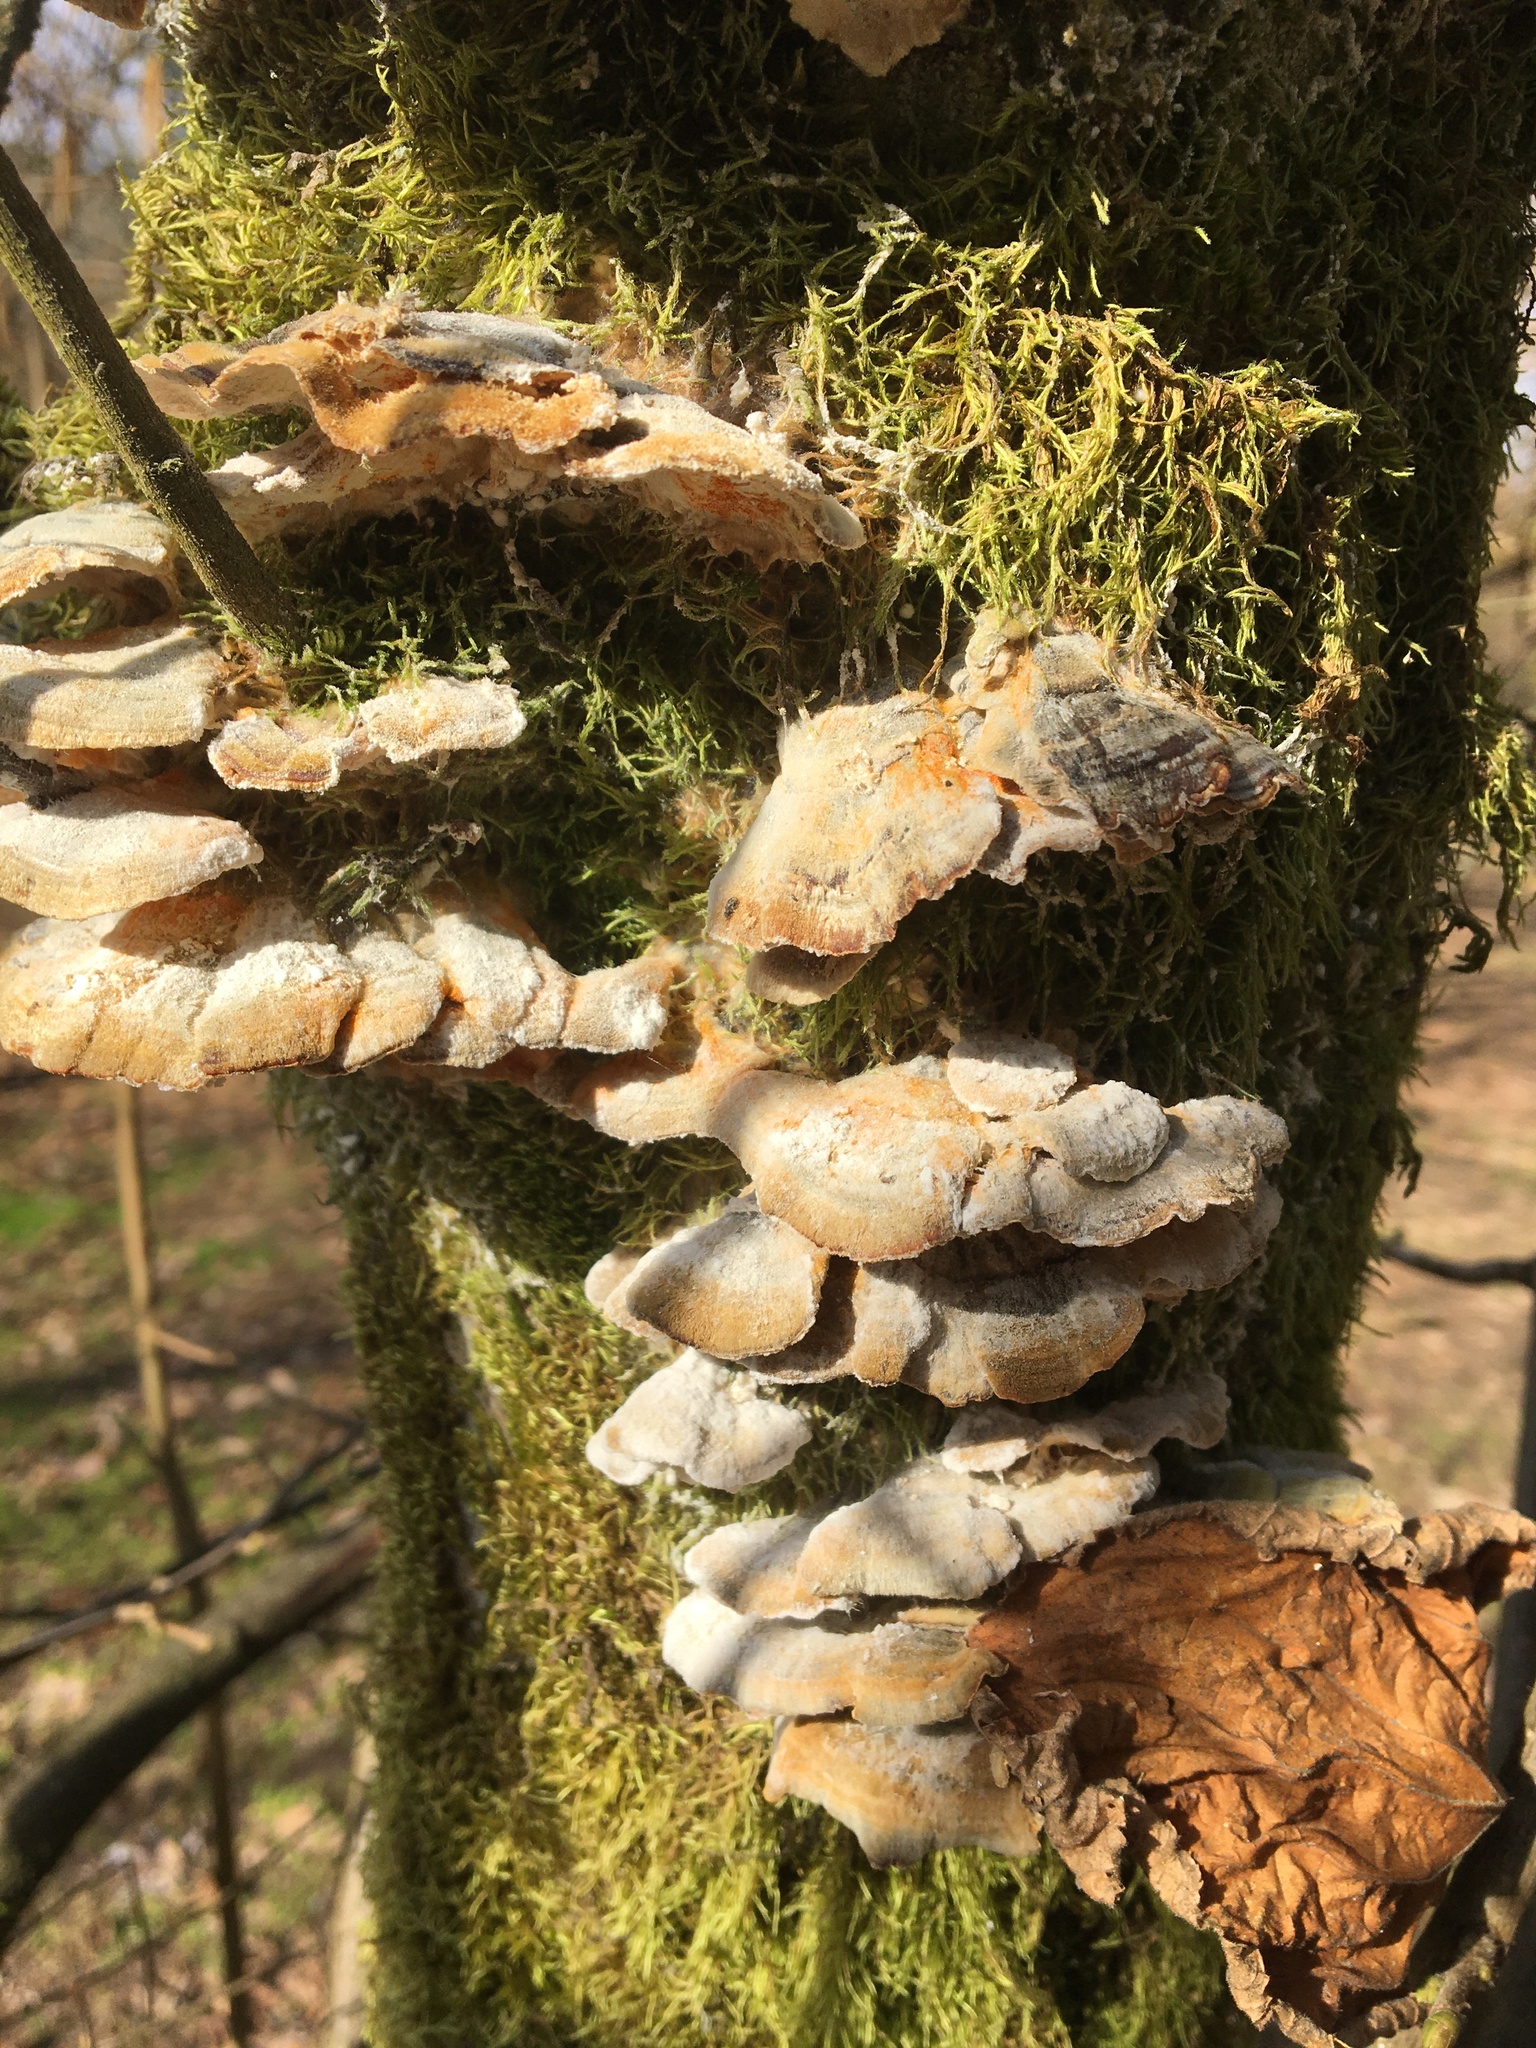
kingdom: Fungi
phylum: Basidiomycota
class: Agaricomycetes
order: Polyporales
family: Polyporaceae
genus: Trametes
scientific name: Trametes versicolor
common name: Turkeytail
